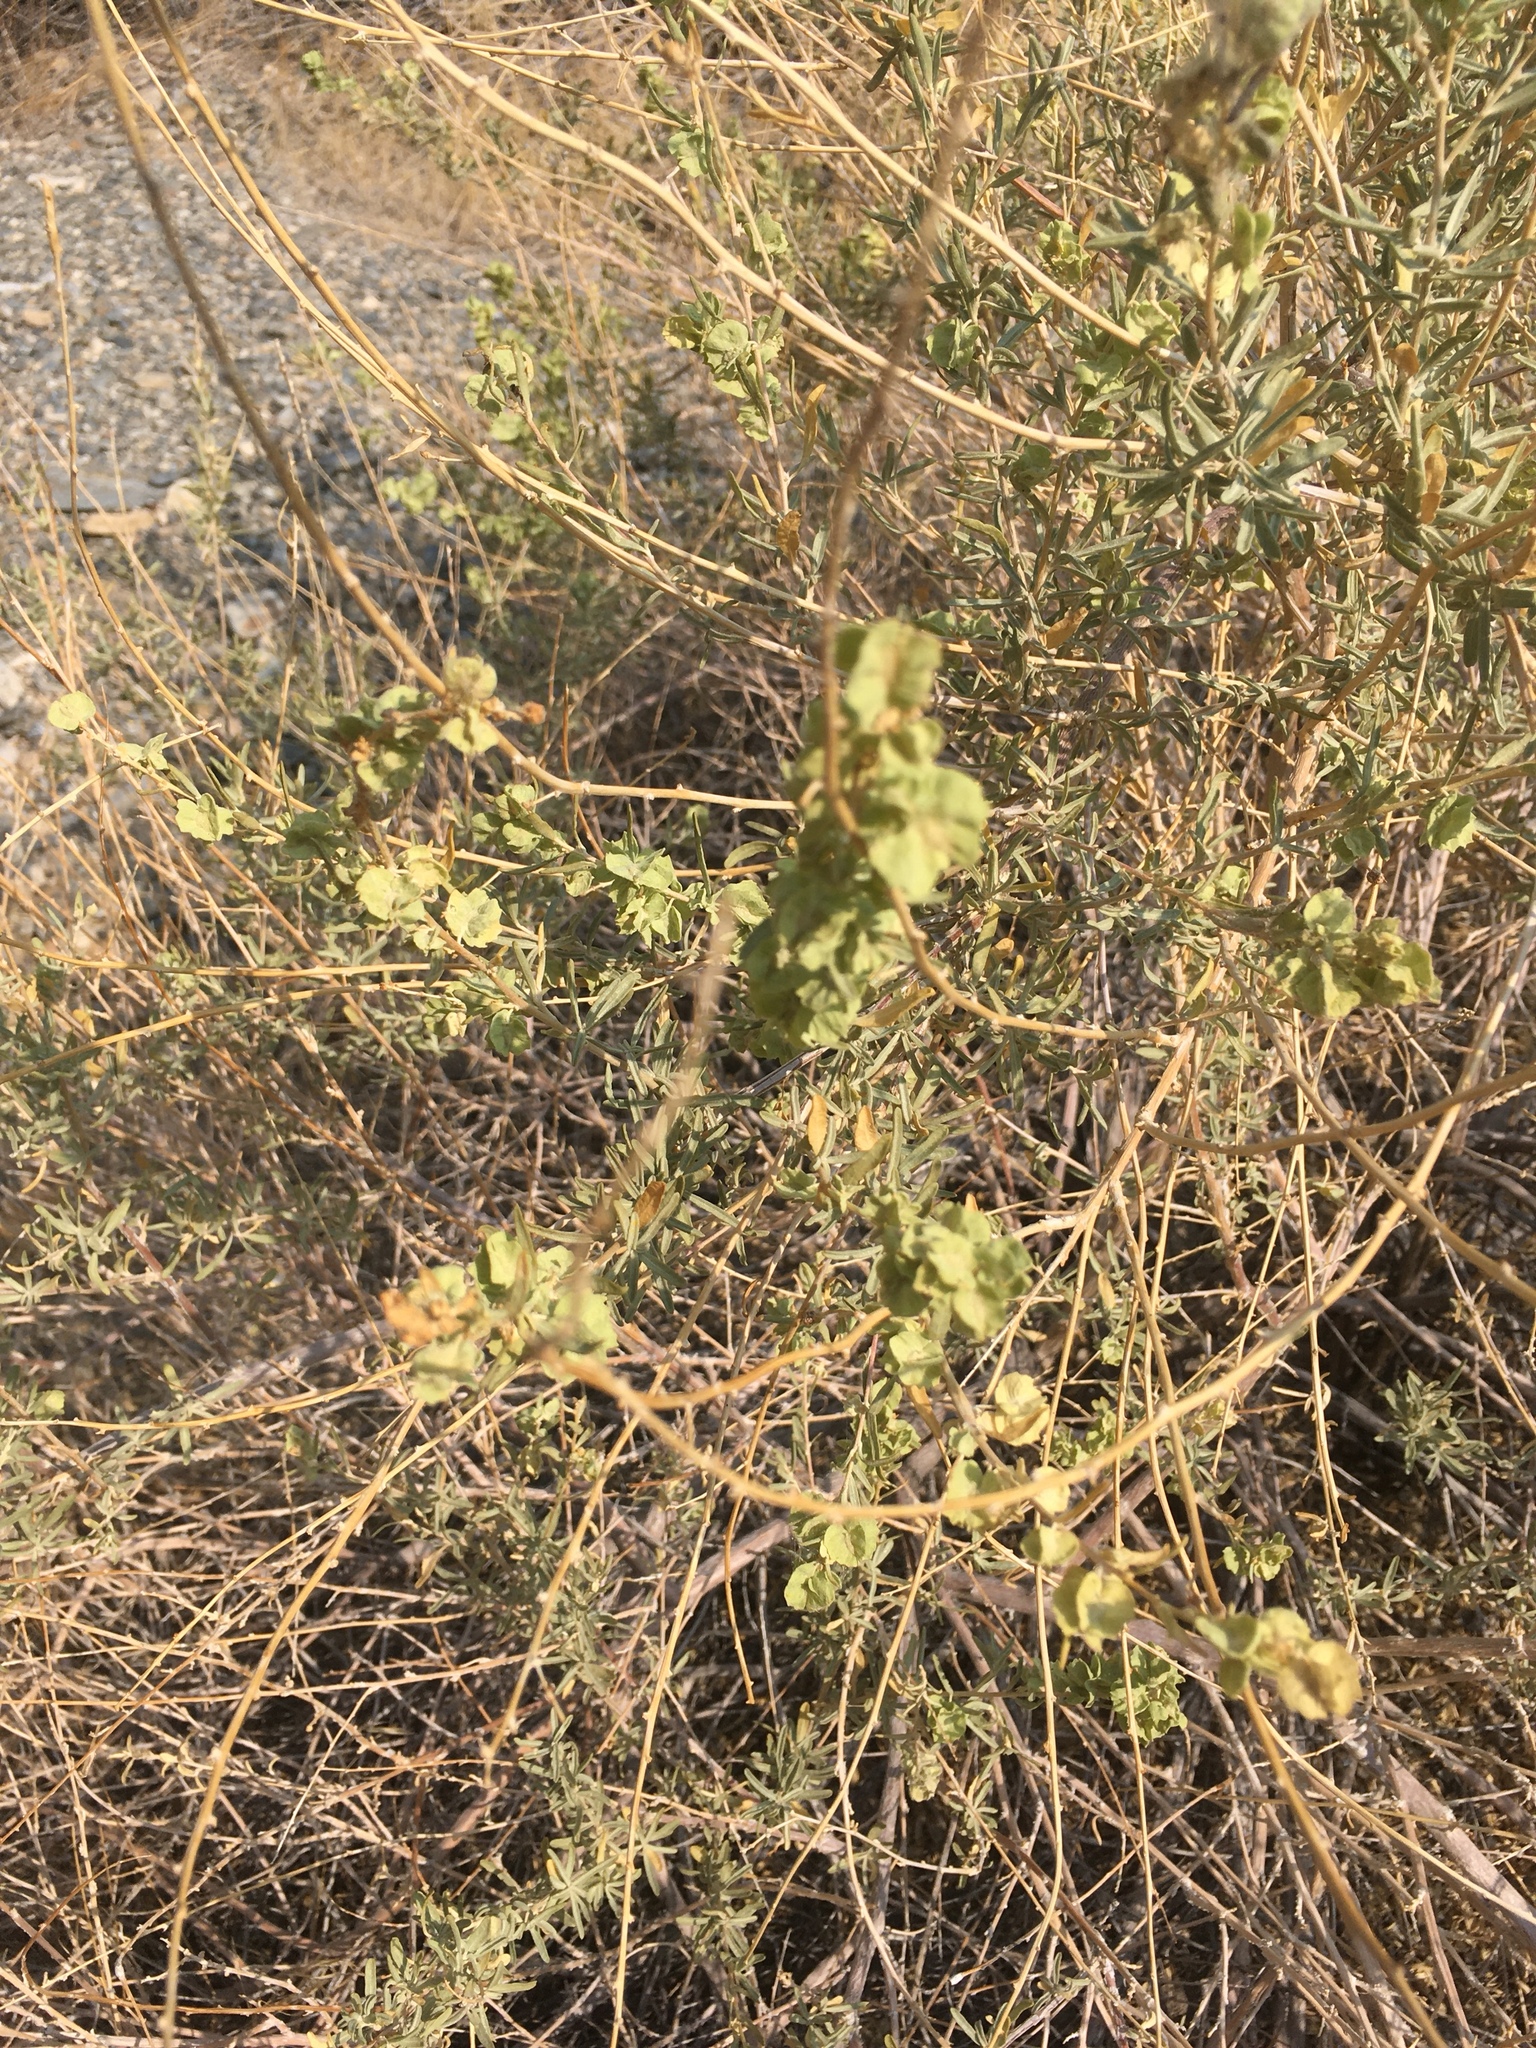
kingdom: Plantae
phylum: Tracheophyta
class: Magnoliopsida
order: Caryophyllales
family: Amaranthaceae
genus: Atriplex
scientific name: Atriplex canescens
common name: Four-wing saltbush
